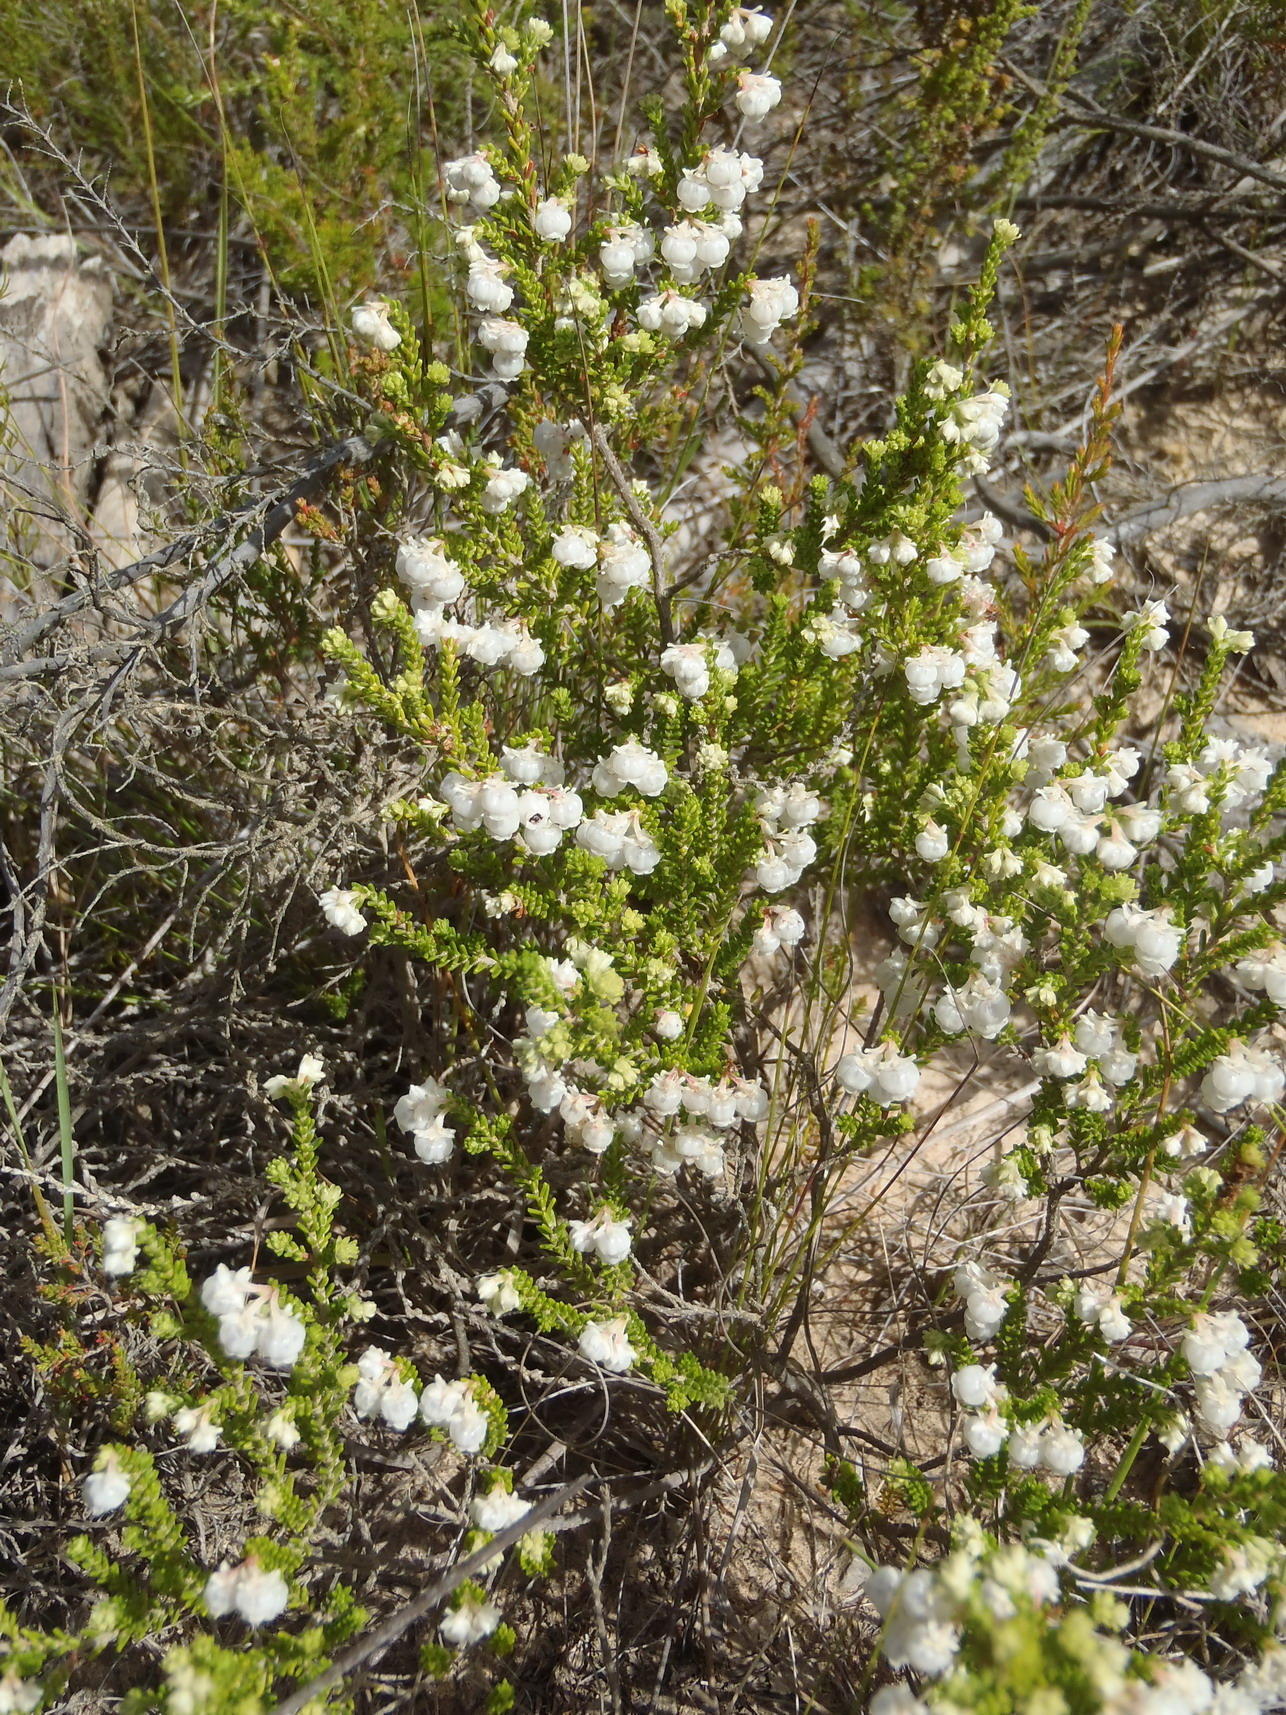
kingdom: Plantae
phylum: Tracheophyta
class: Magnoliopsida
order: Ericales
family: Ericaceae
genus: Erica
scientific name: Erica formosa
